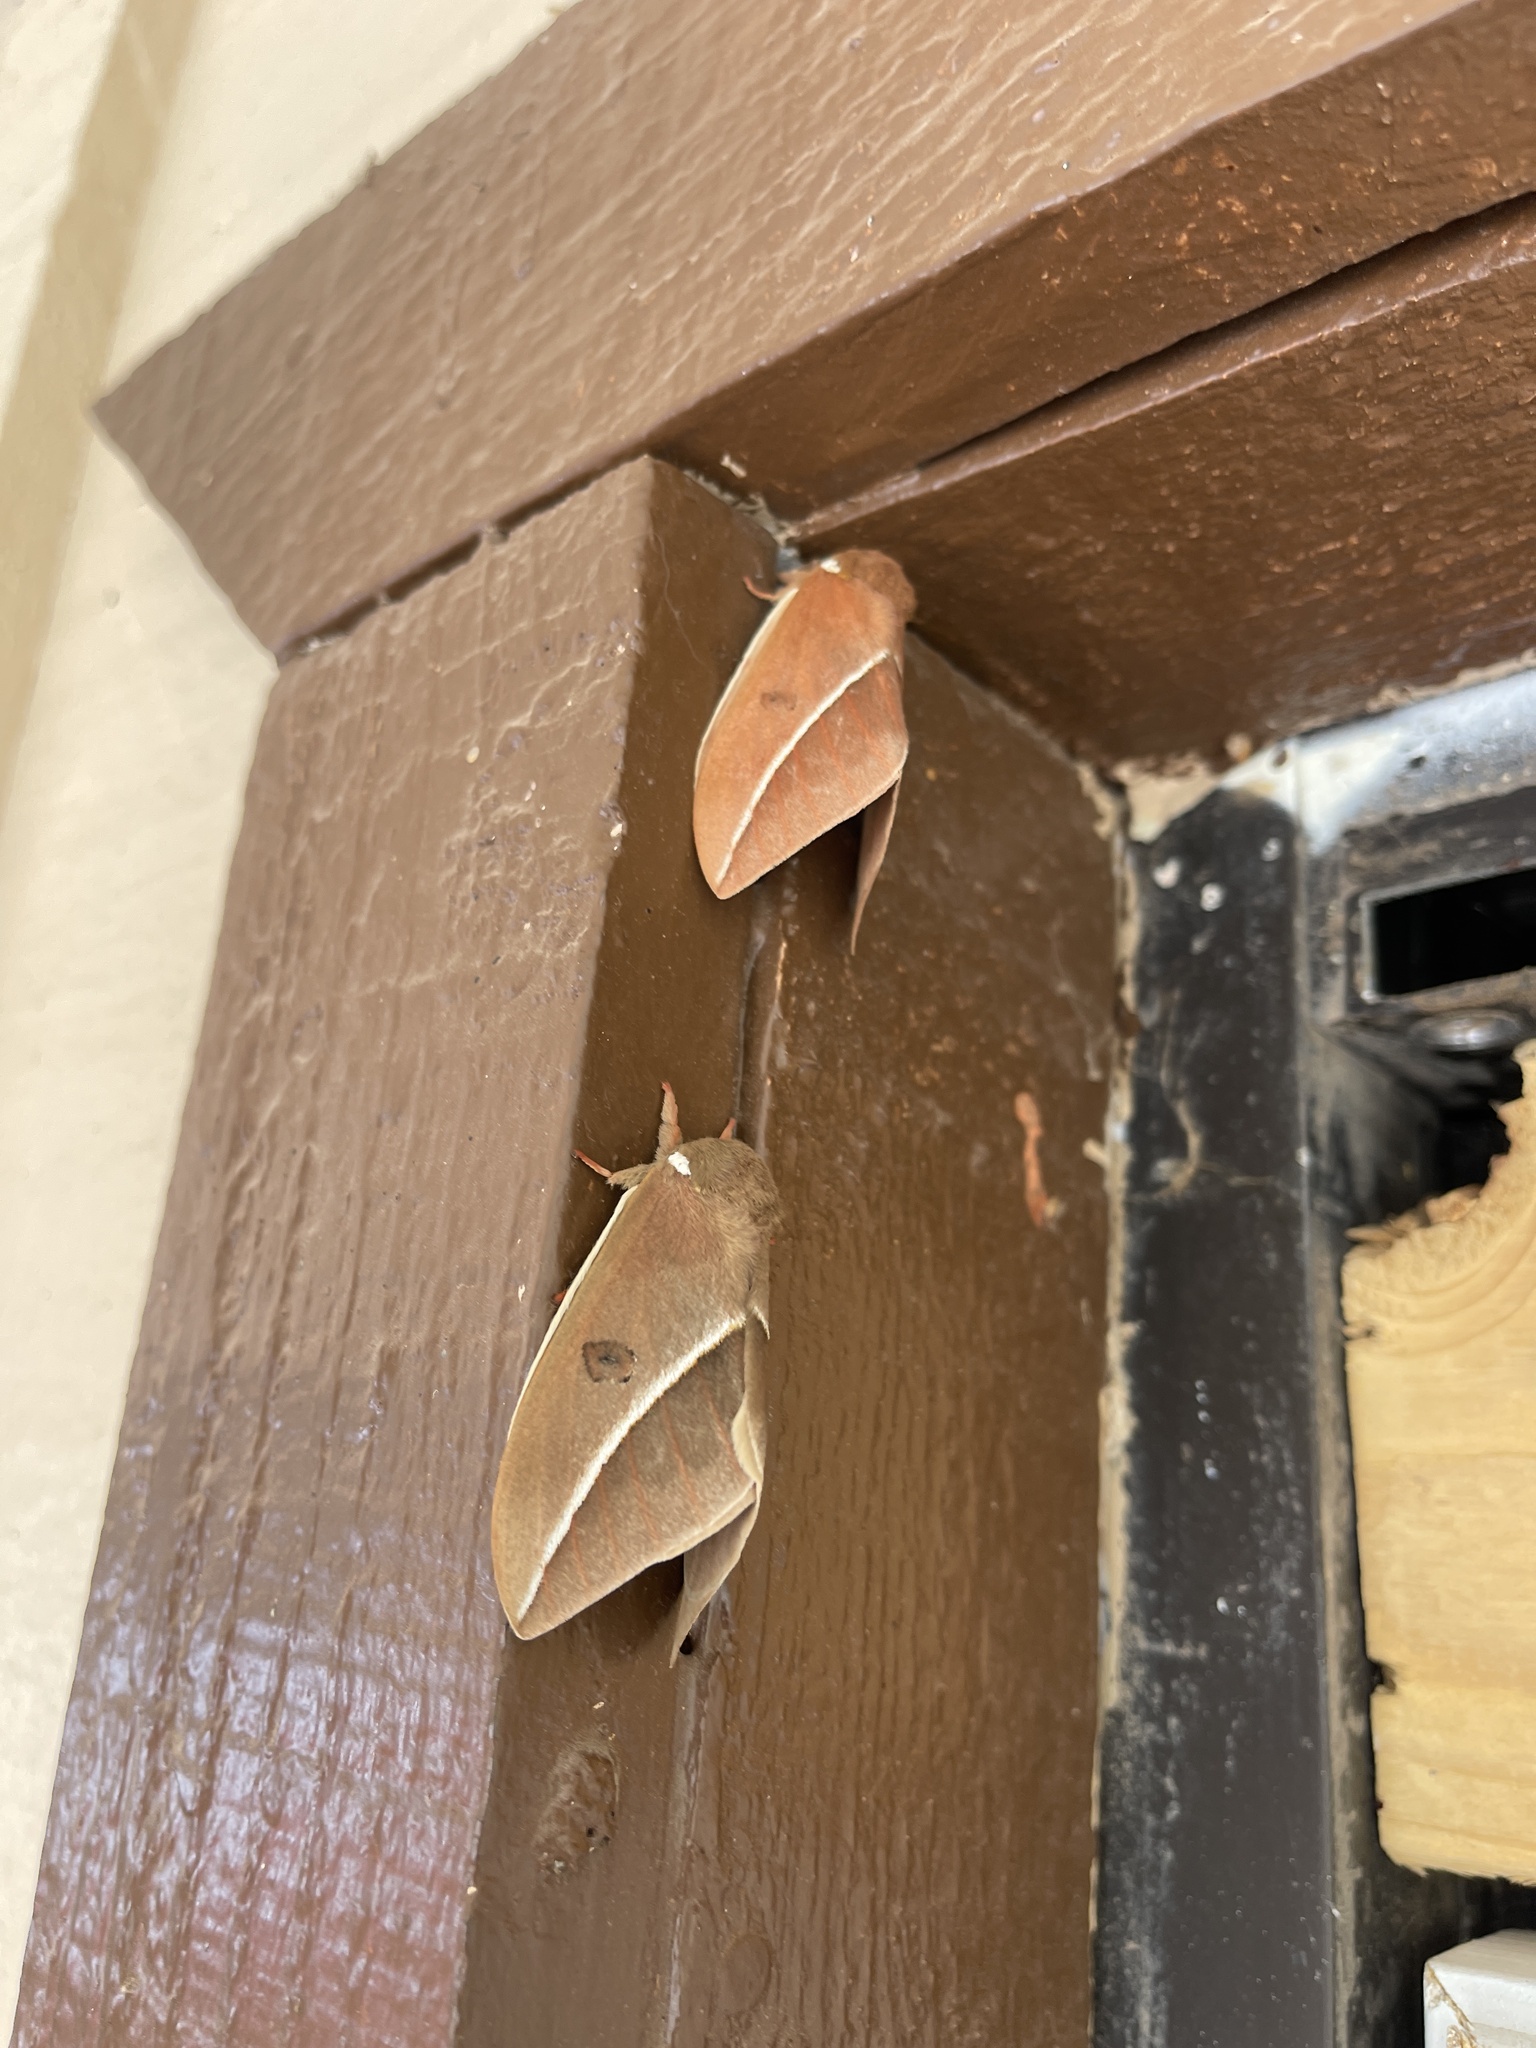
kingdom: Animalia
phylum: Arthropoda
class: Insecta
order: Lepidoptera
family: Saturniidae
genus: Automeris
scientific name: Automeris zephyria
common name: Zephyr eyed silkmoth
